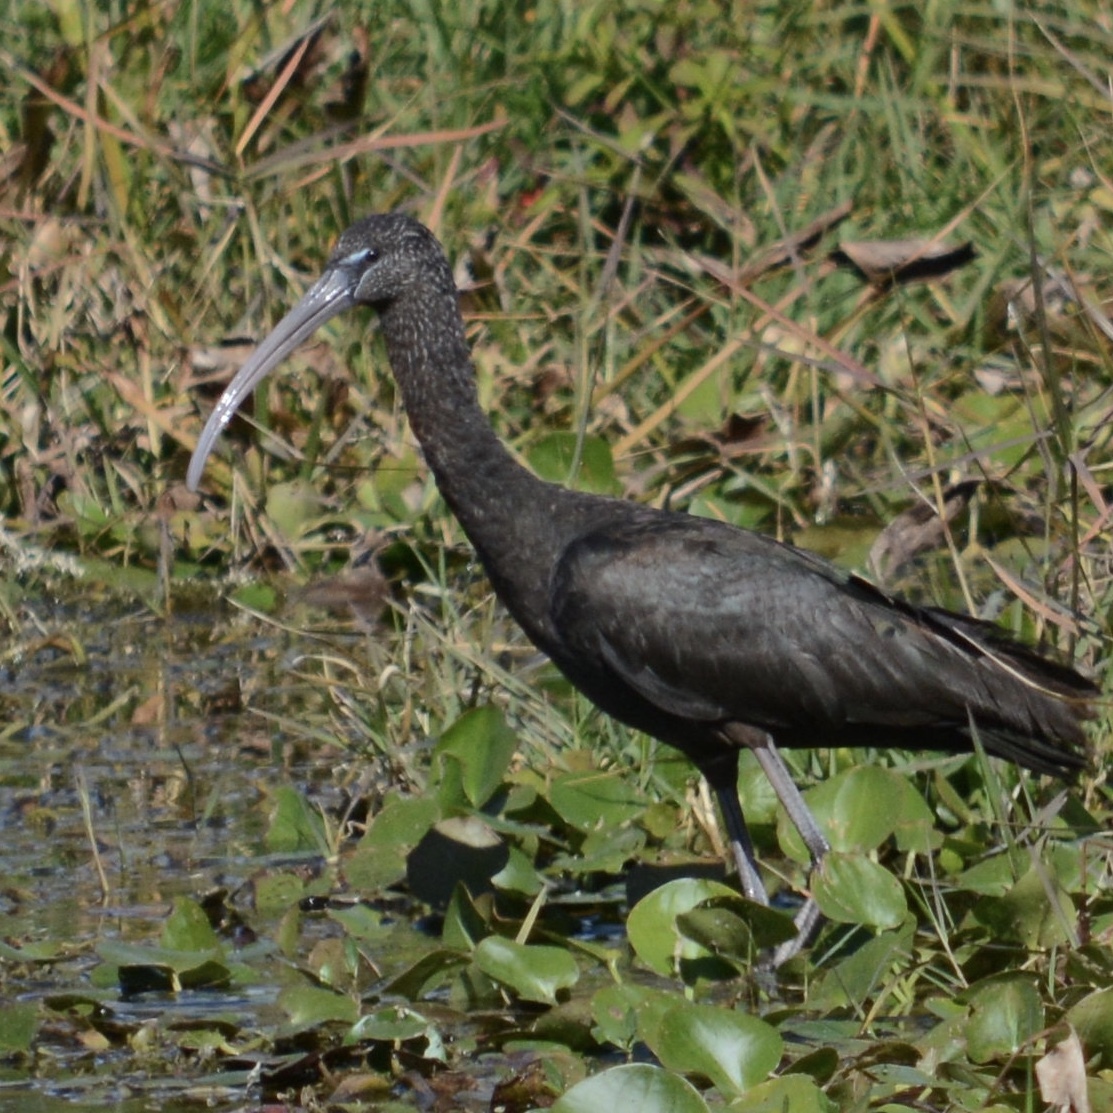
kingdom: Animalia
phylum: Chordata
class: Aves
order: Pelecaniformes
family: Threskiornithidae
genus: Plegadis
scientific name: Plegadis falcinellus
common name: Glossy ibis
